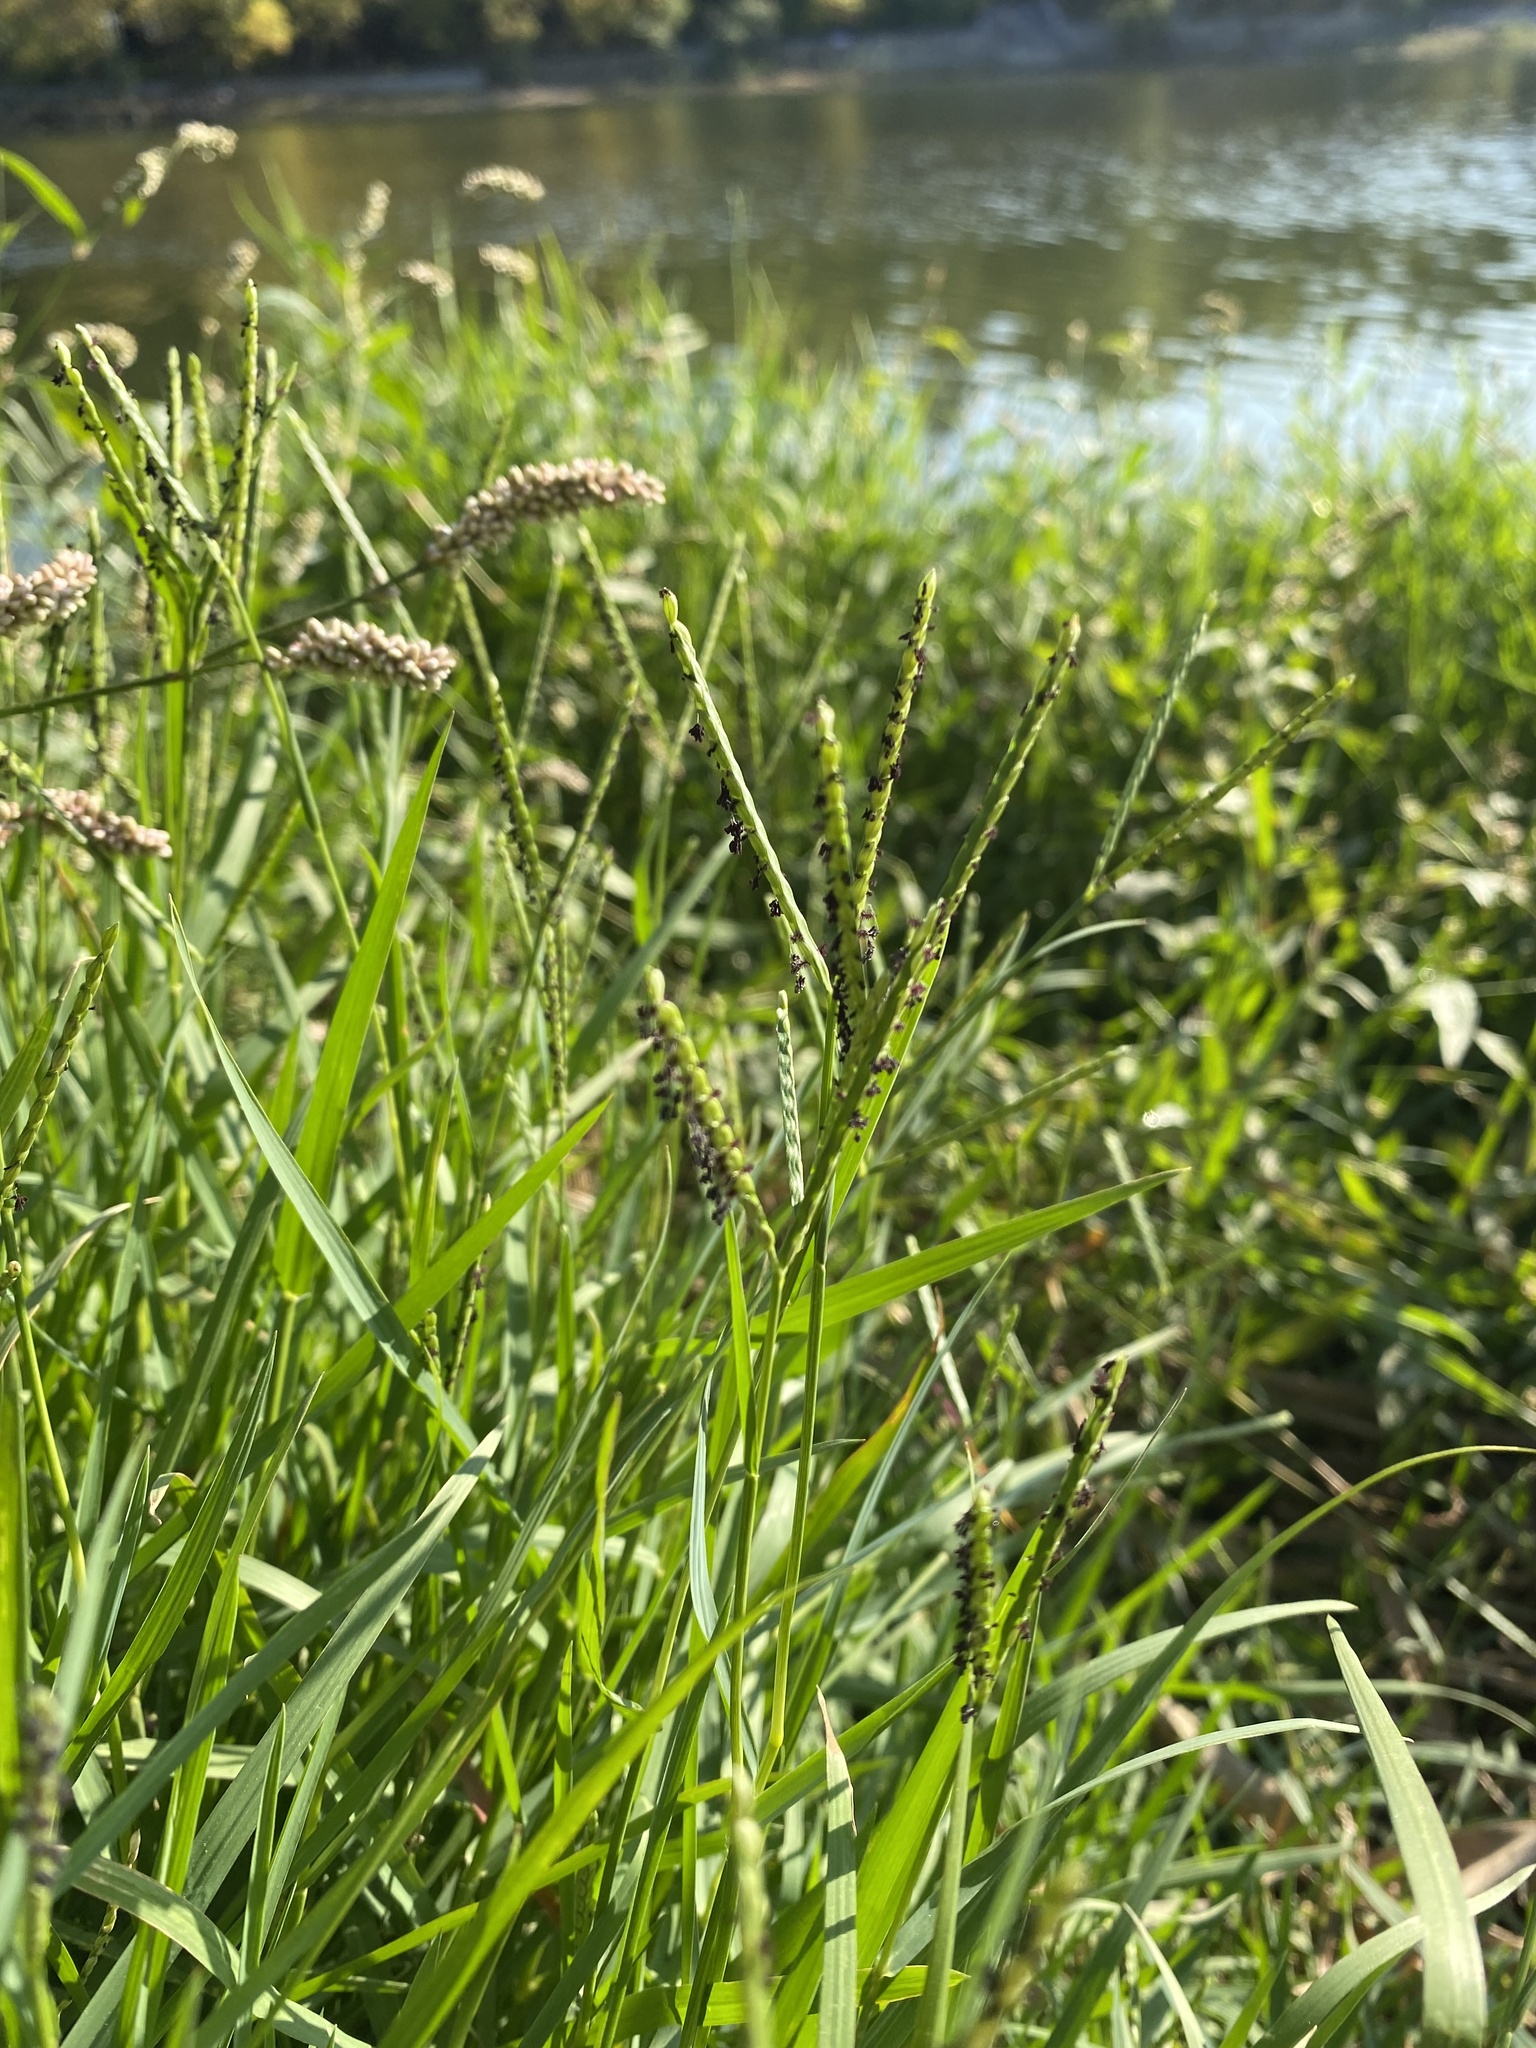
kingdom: Plantae
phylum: Tracheophyta
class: Liliopsida
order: Poales
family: Poaceae
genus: Paspalum
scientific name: Paspalum distichum
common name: Knotgrass
